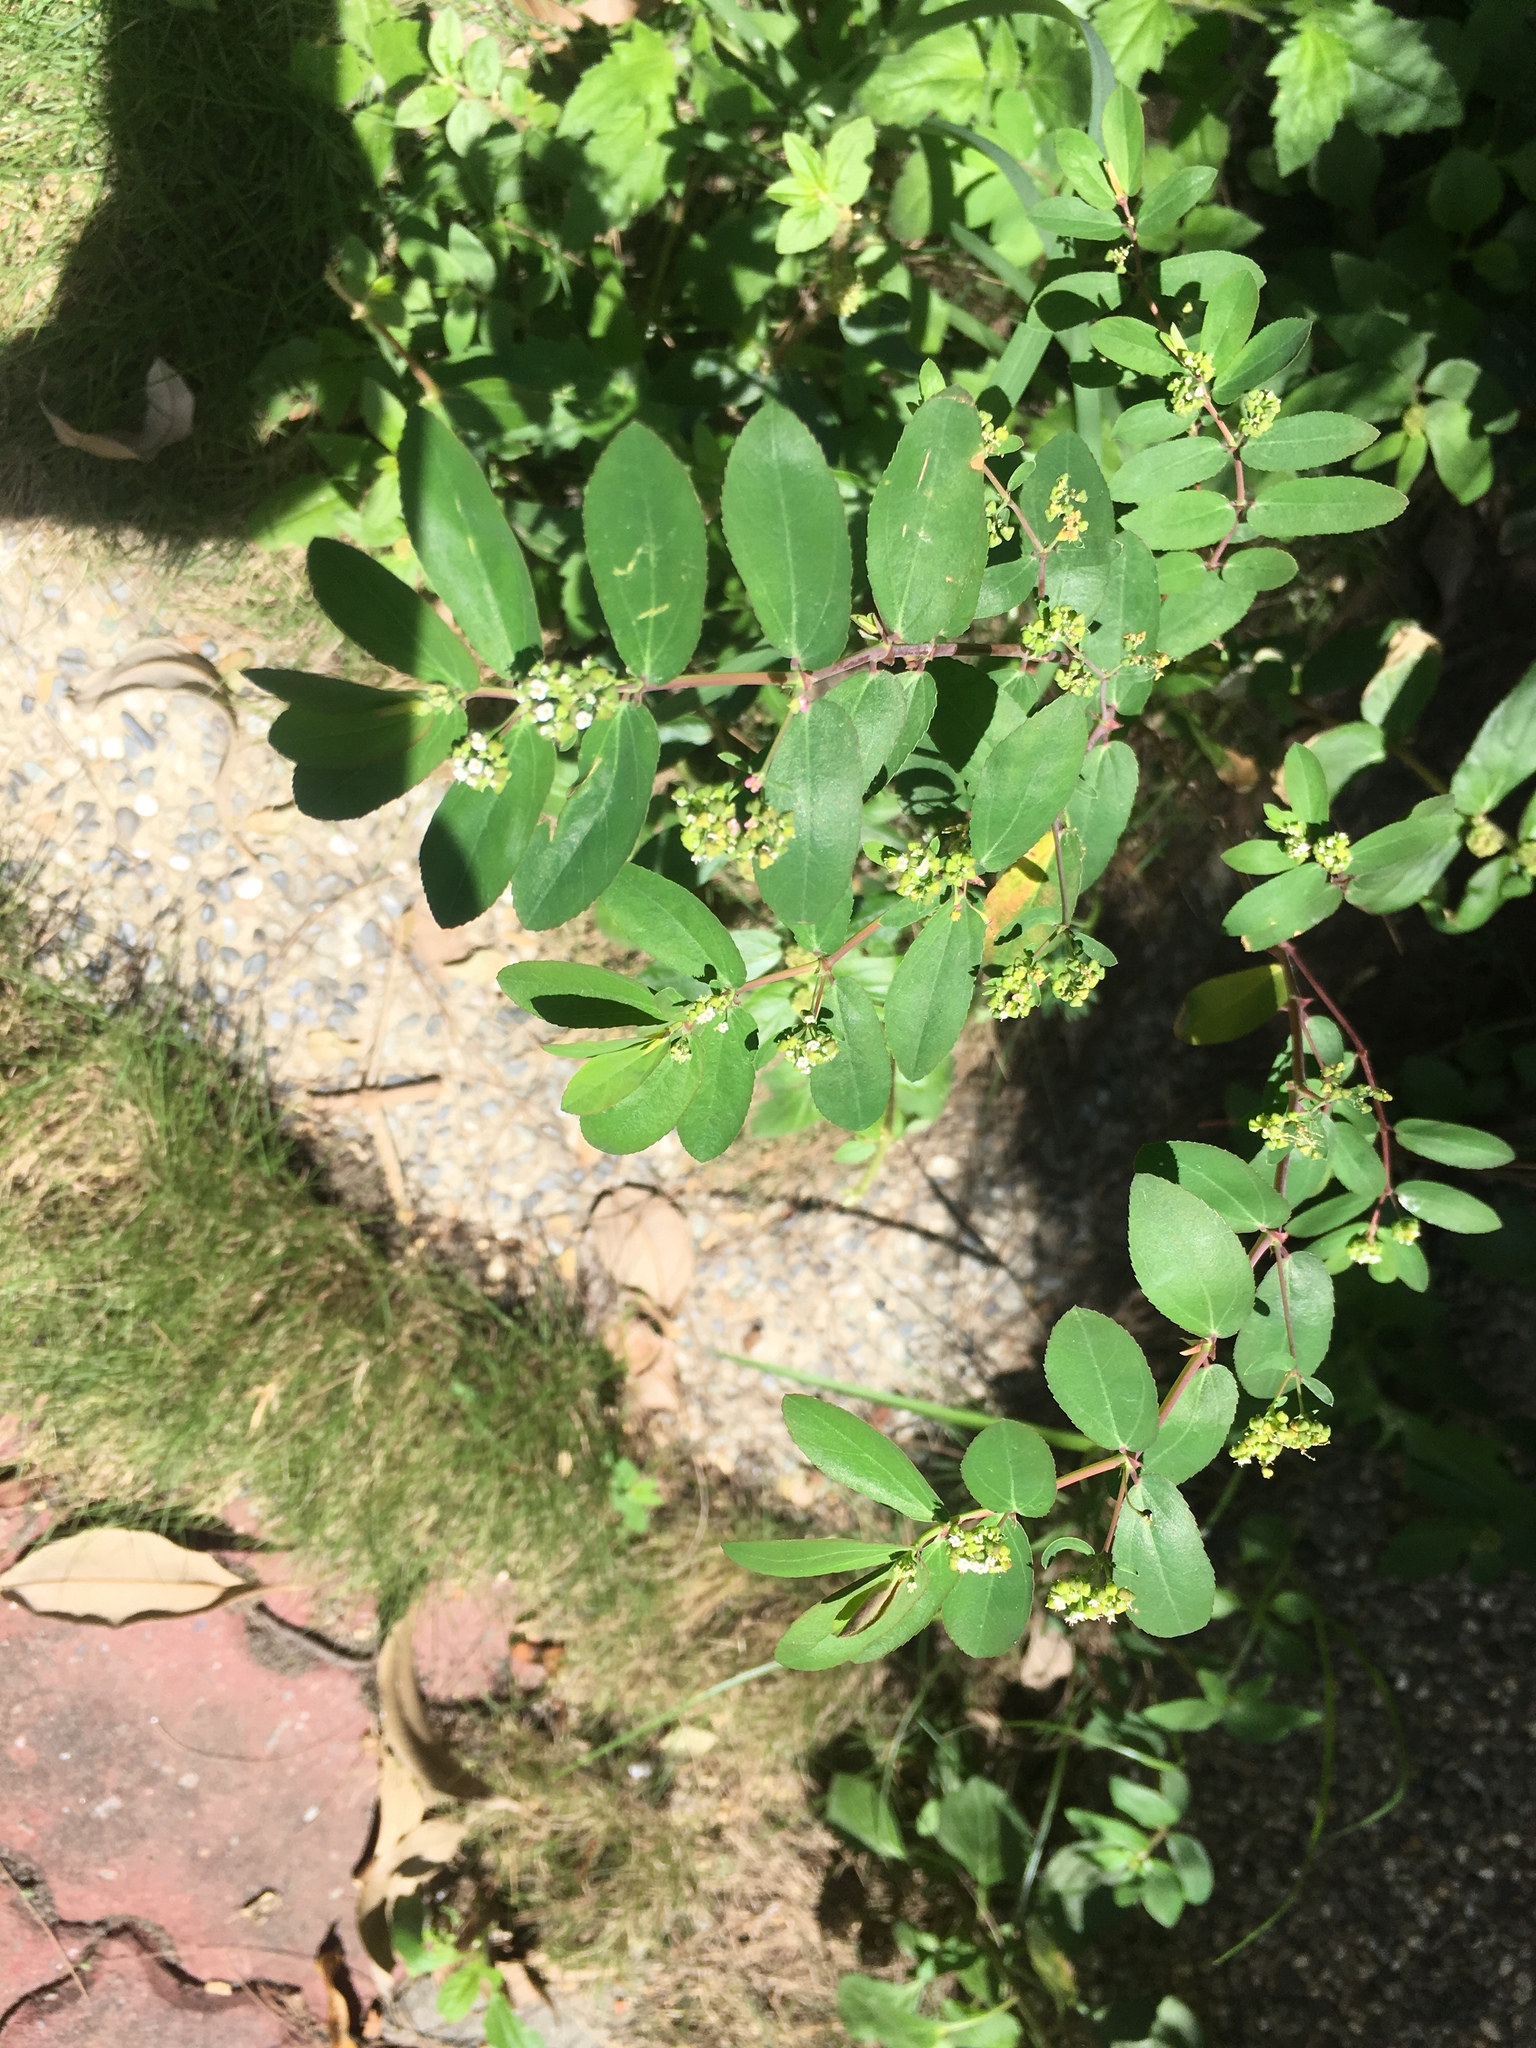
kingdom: Plantae
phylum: Tracheophyta
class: Magnoliopsida
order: Malpighiales
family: Euphorbiaceae
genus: Euphorbia
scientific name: Euphorbia hypericifolia
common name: Graceful sandmat
